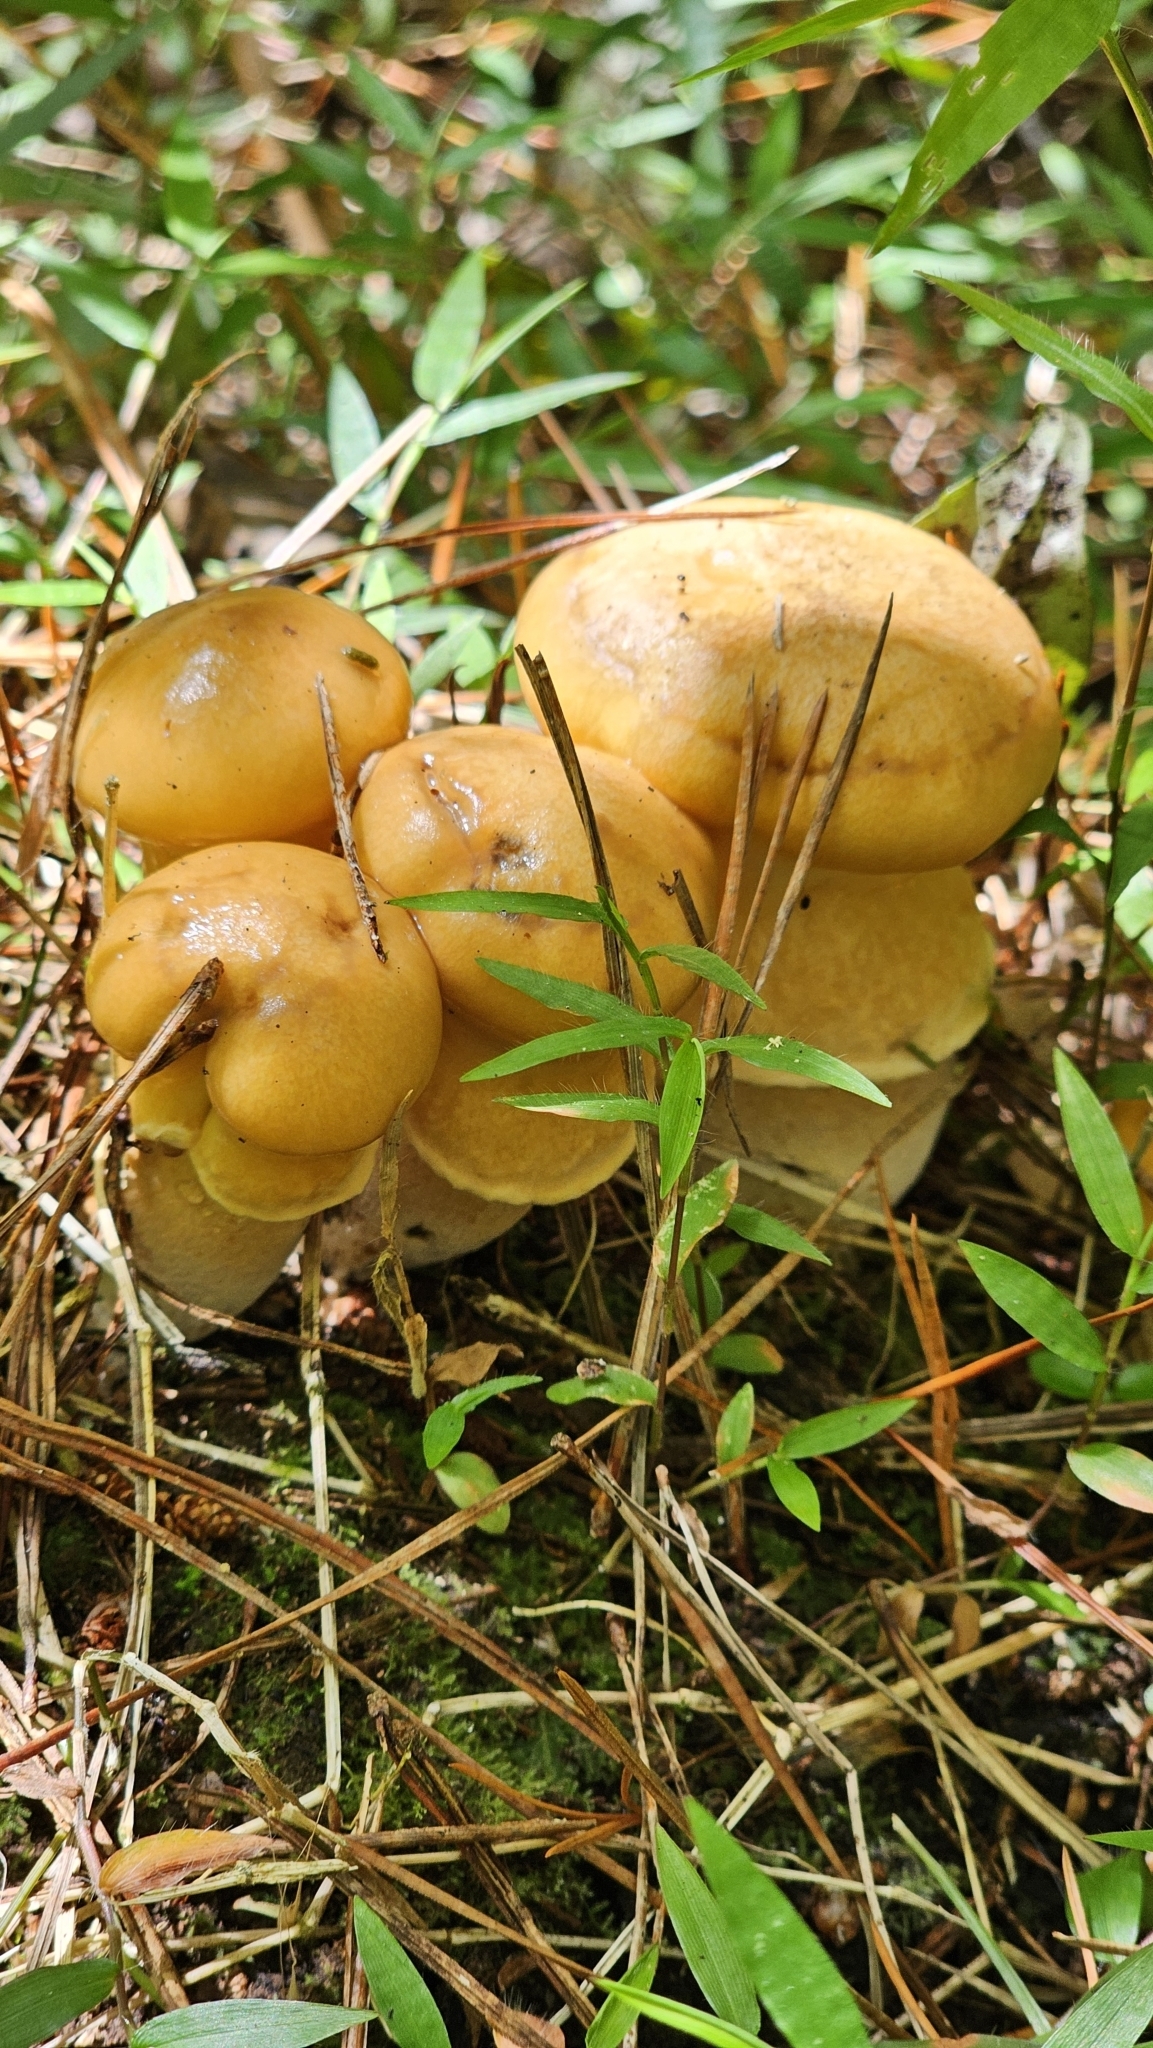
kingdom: Fungi
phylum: Basidiomycota
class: Agaricomycetes
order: Boletales
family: Suillaceae
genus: Suillus
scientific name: Suillus salmonicolor
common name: Slippery jill
